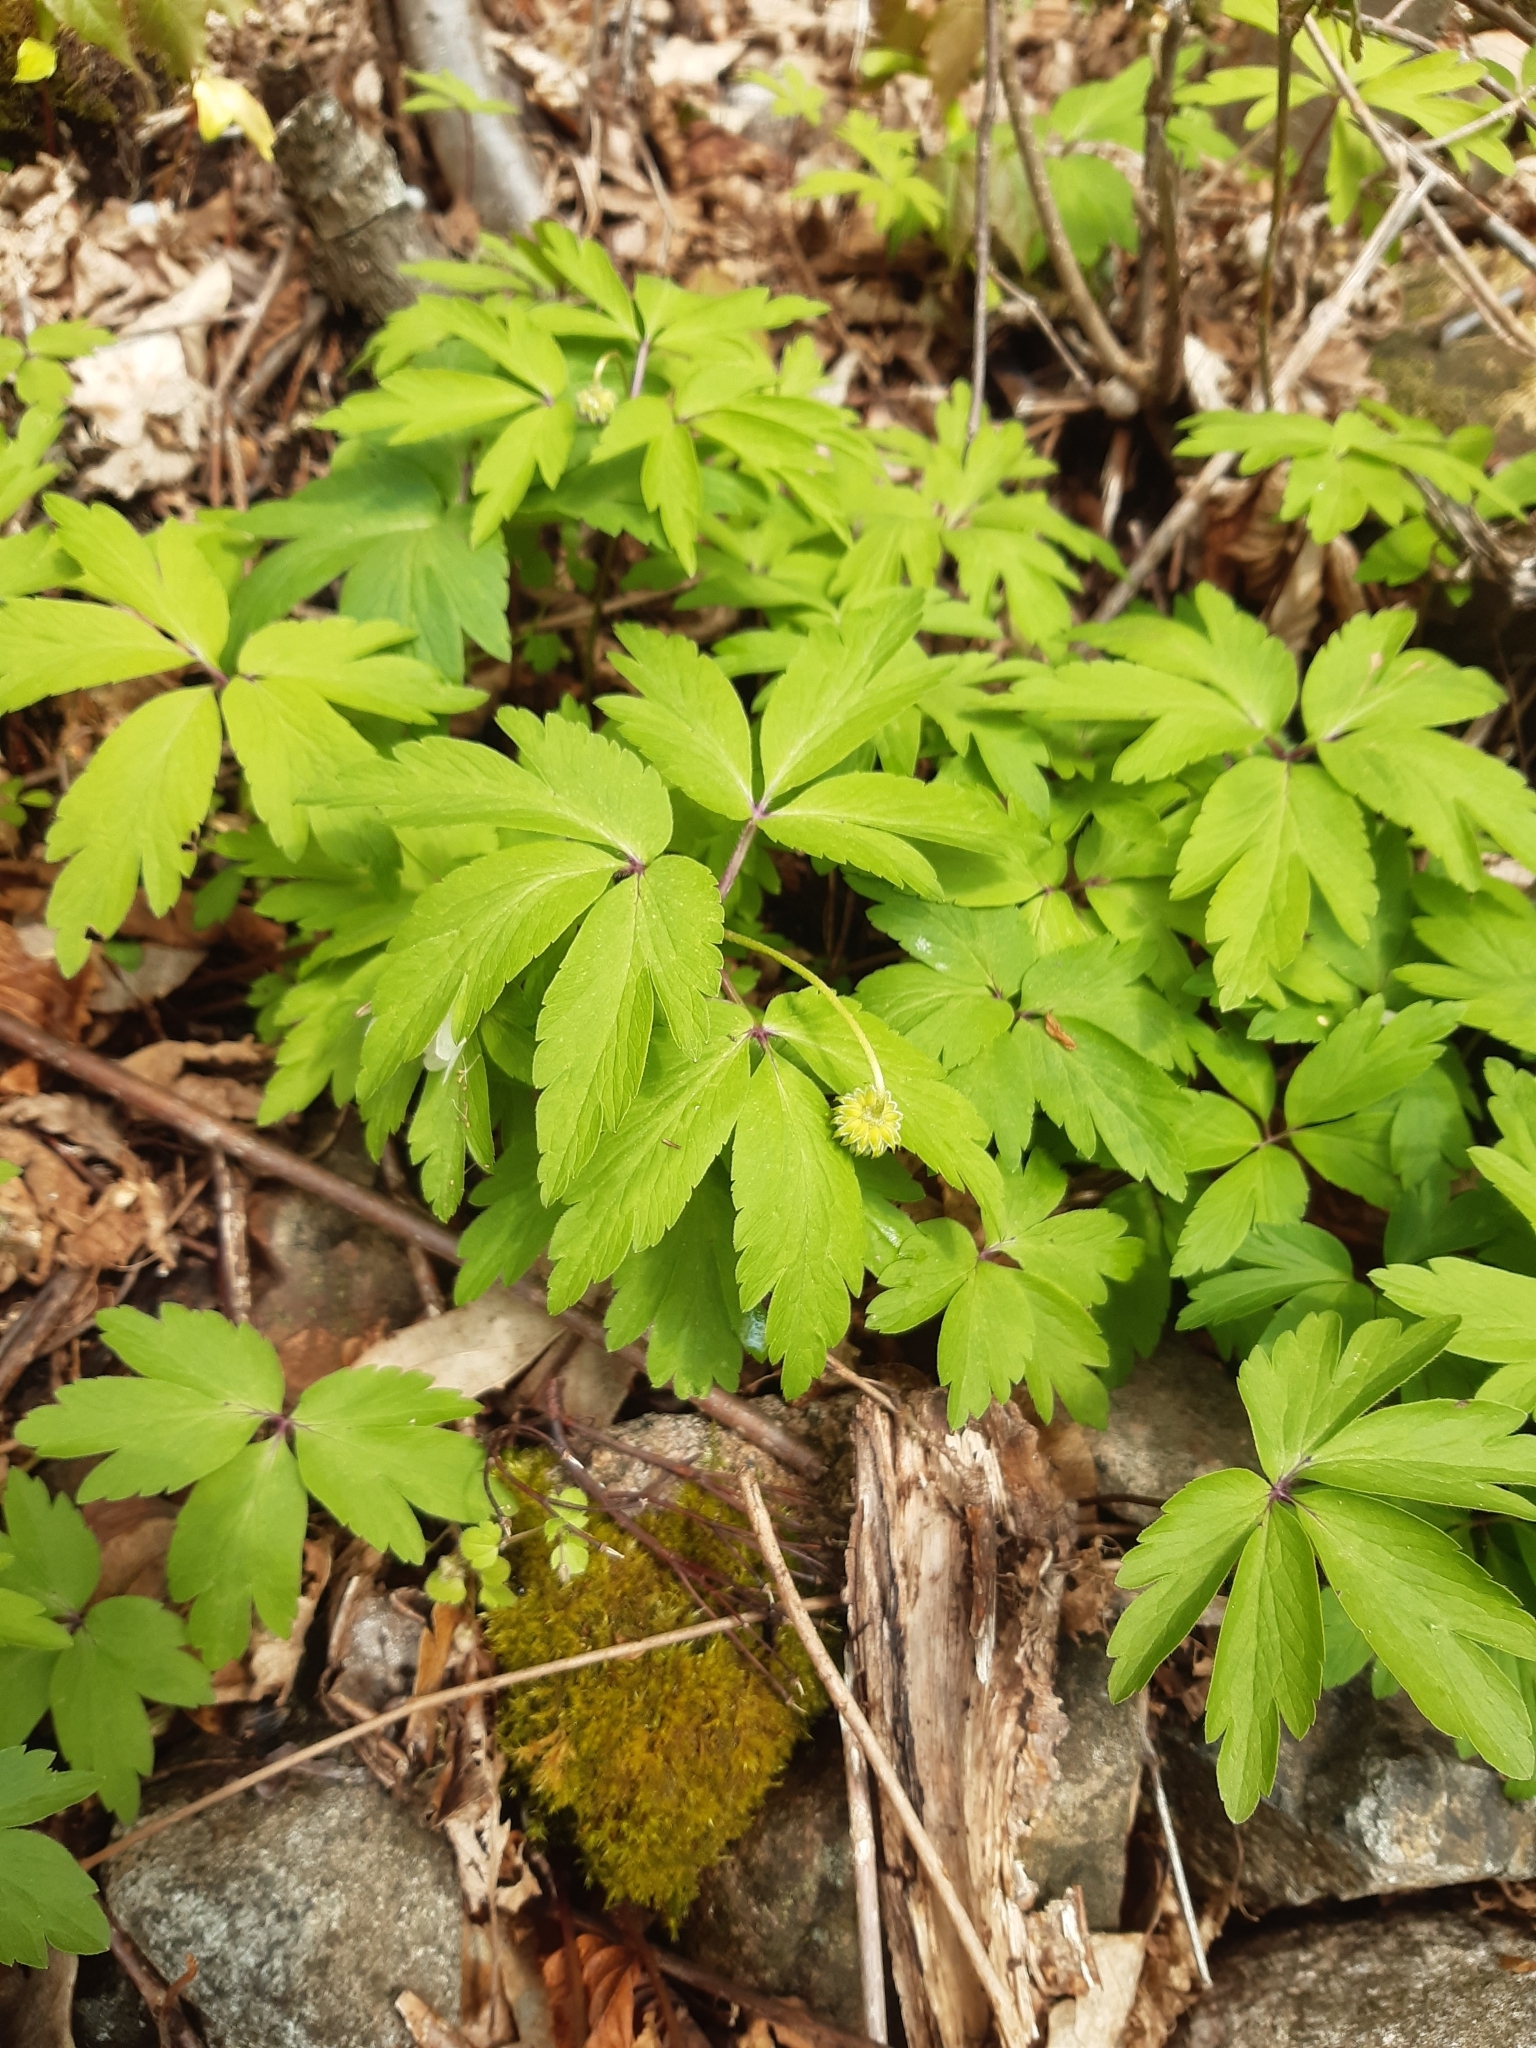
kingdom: Plantae
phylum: Tracheophyta
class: Magnoliopsida
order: Ranunculales
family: Ranunculaceae
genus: Anemone
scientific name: Anemone nemorosa
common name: Wood anemone
